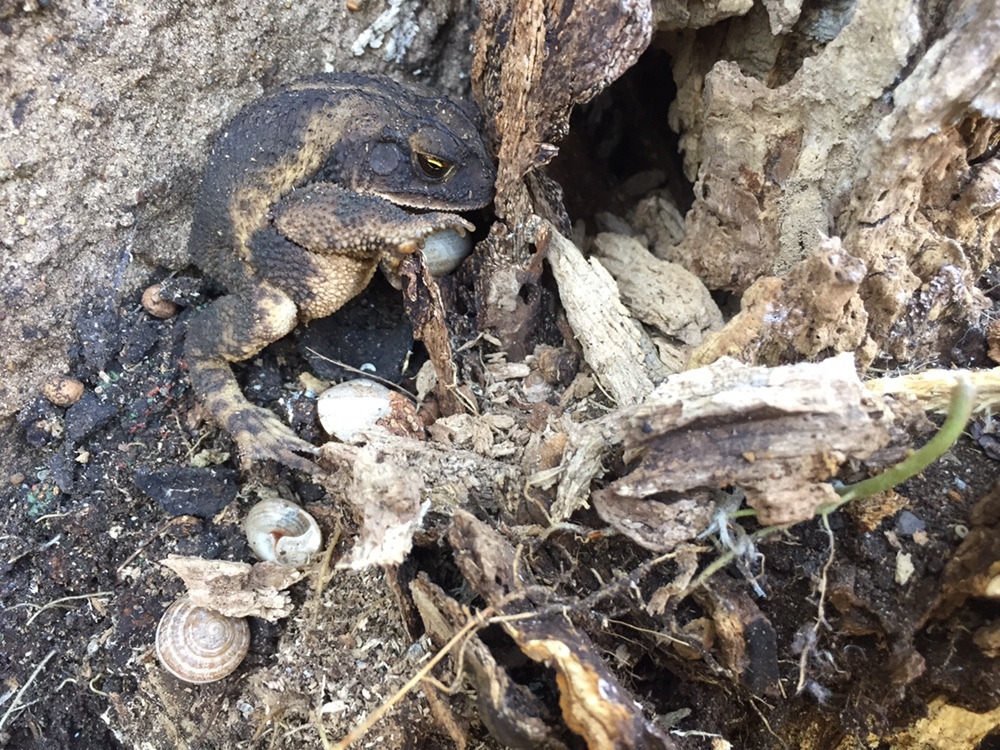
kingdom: Animalia
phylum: Chordata
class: Amphibia
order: Anura
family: Bufonidae
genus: Incilius
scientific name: Incilius nebulifer
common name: Gulf coast toad
